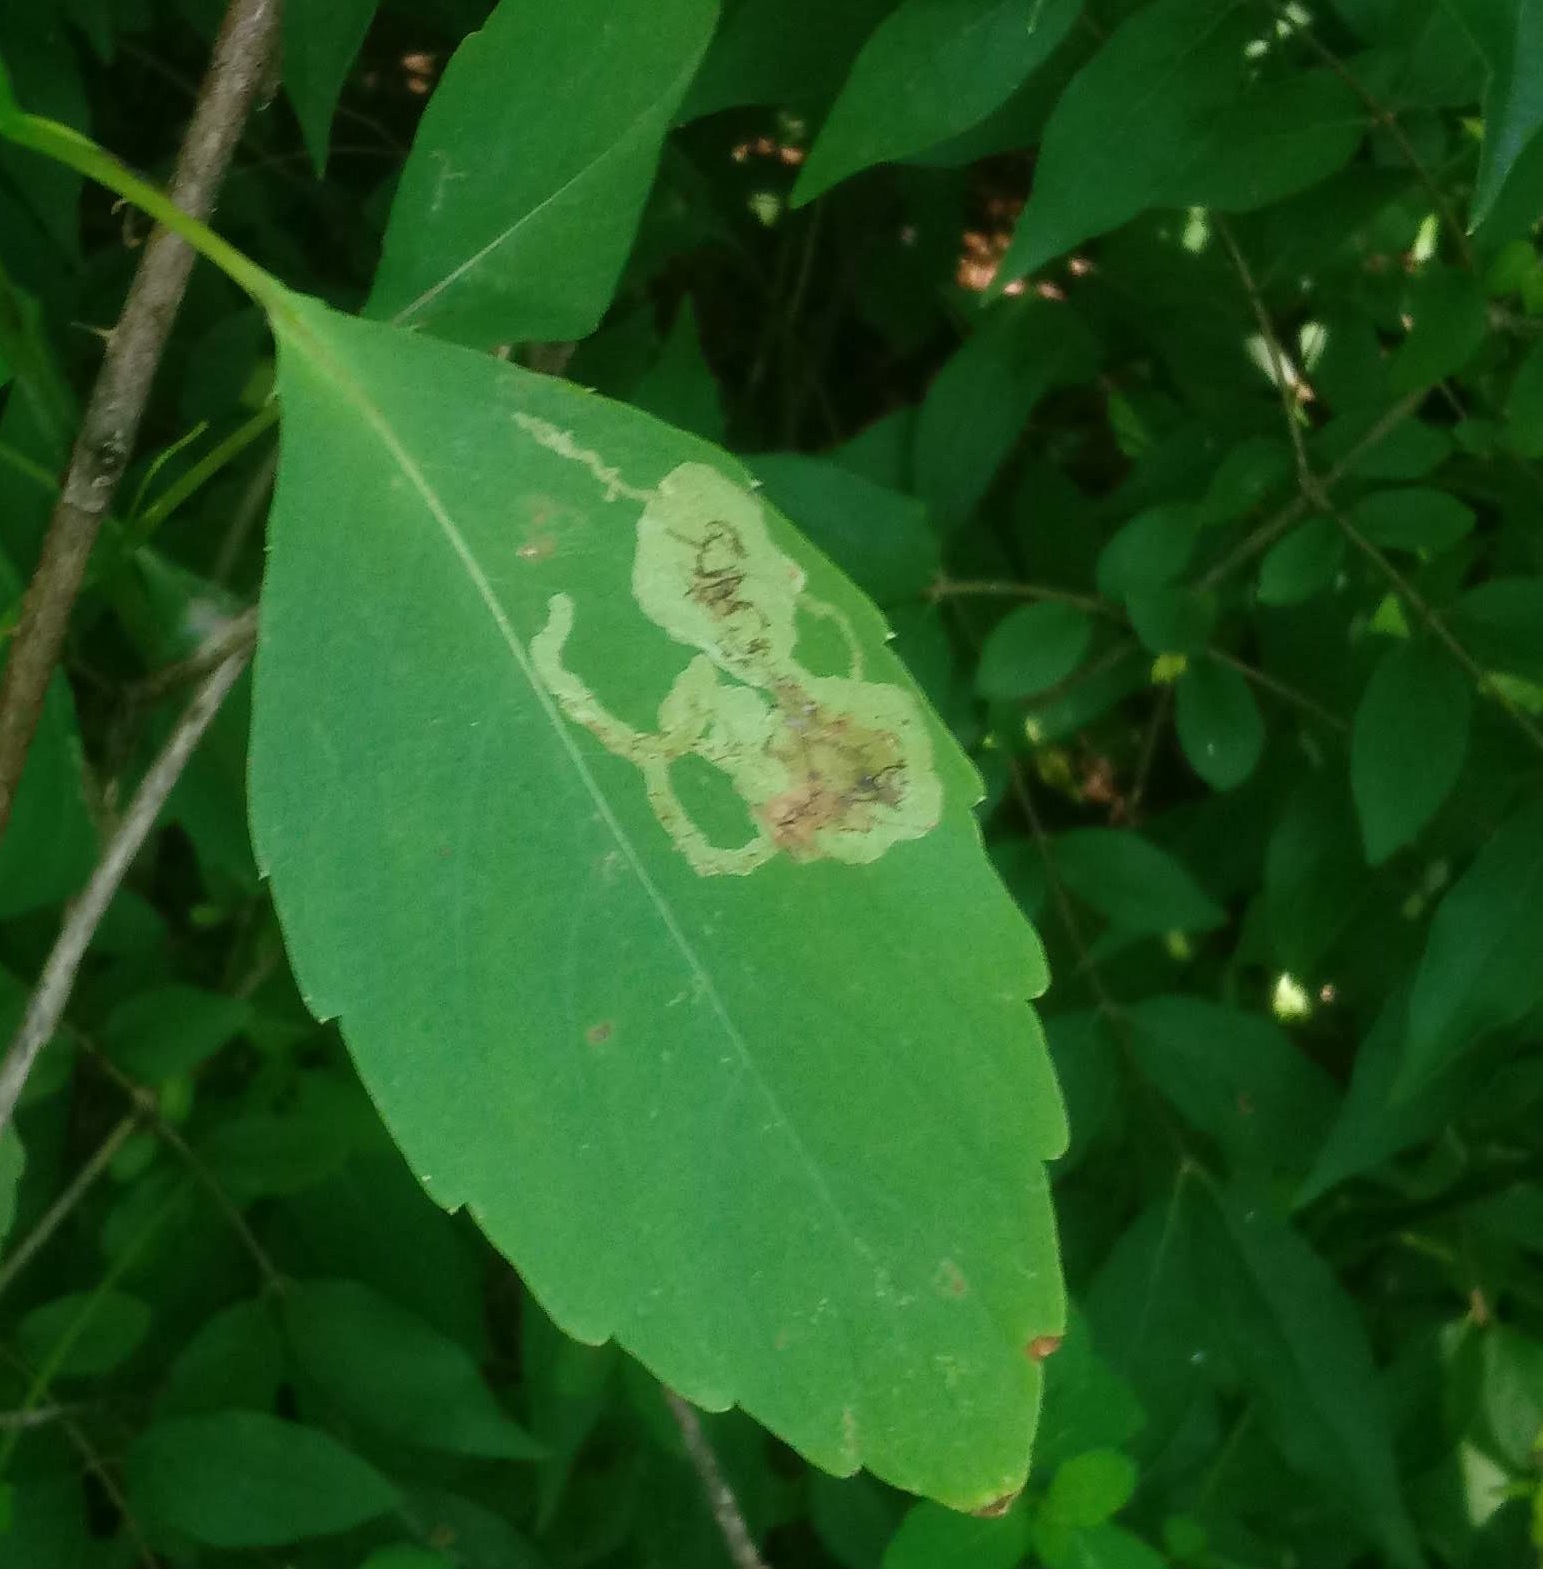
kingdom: Animalia
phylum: Arthropoda
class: Insecta
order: Diptera
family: Agromyzidae
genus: Phytoliriomyza
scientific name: Phytoliriomyza melampyga
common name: Jewelweed leaf-miner fly
